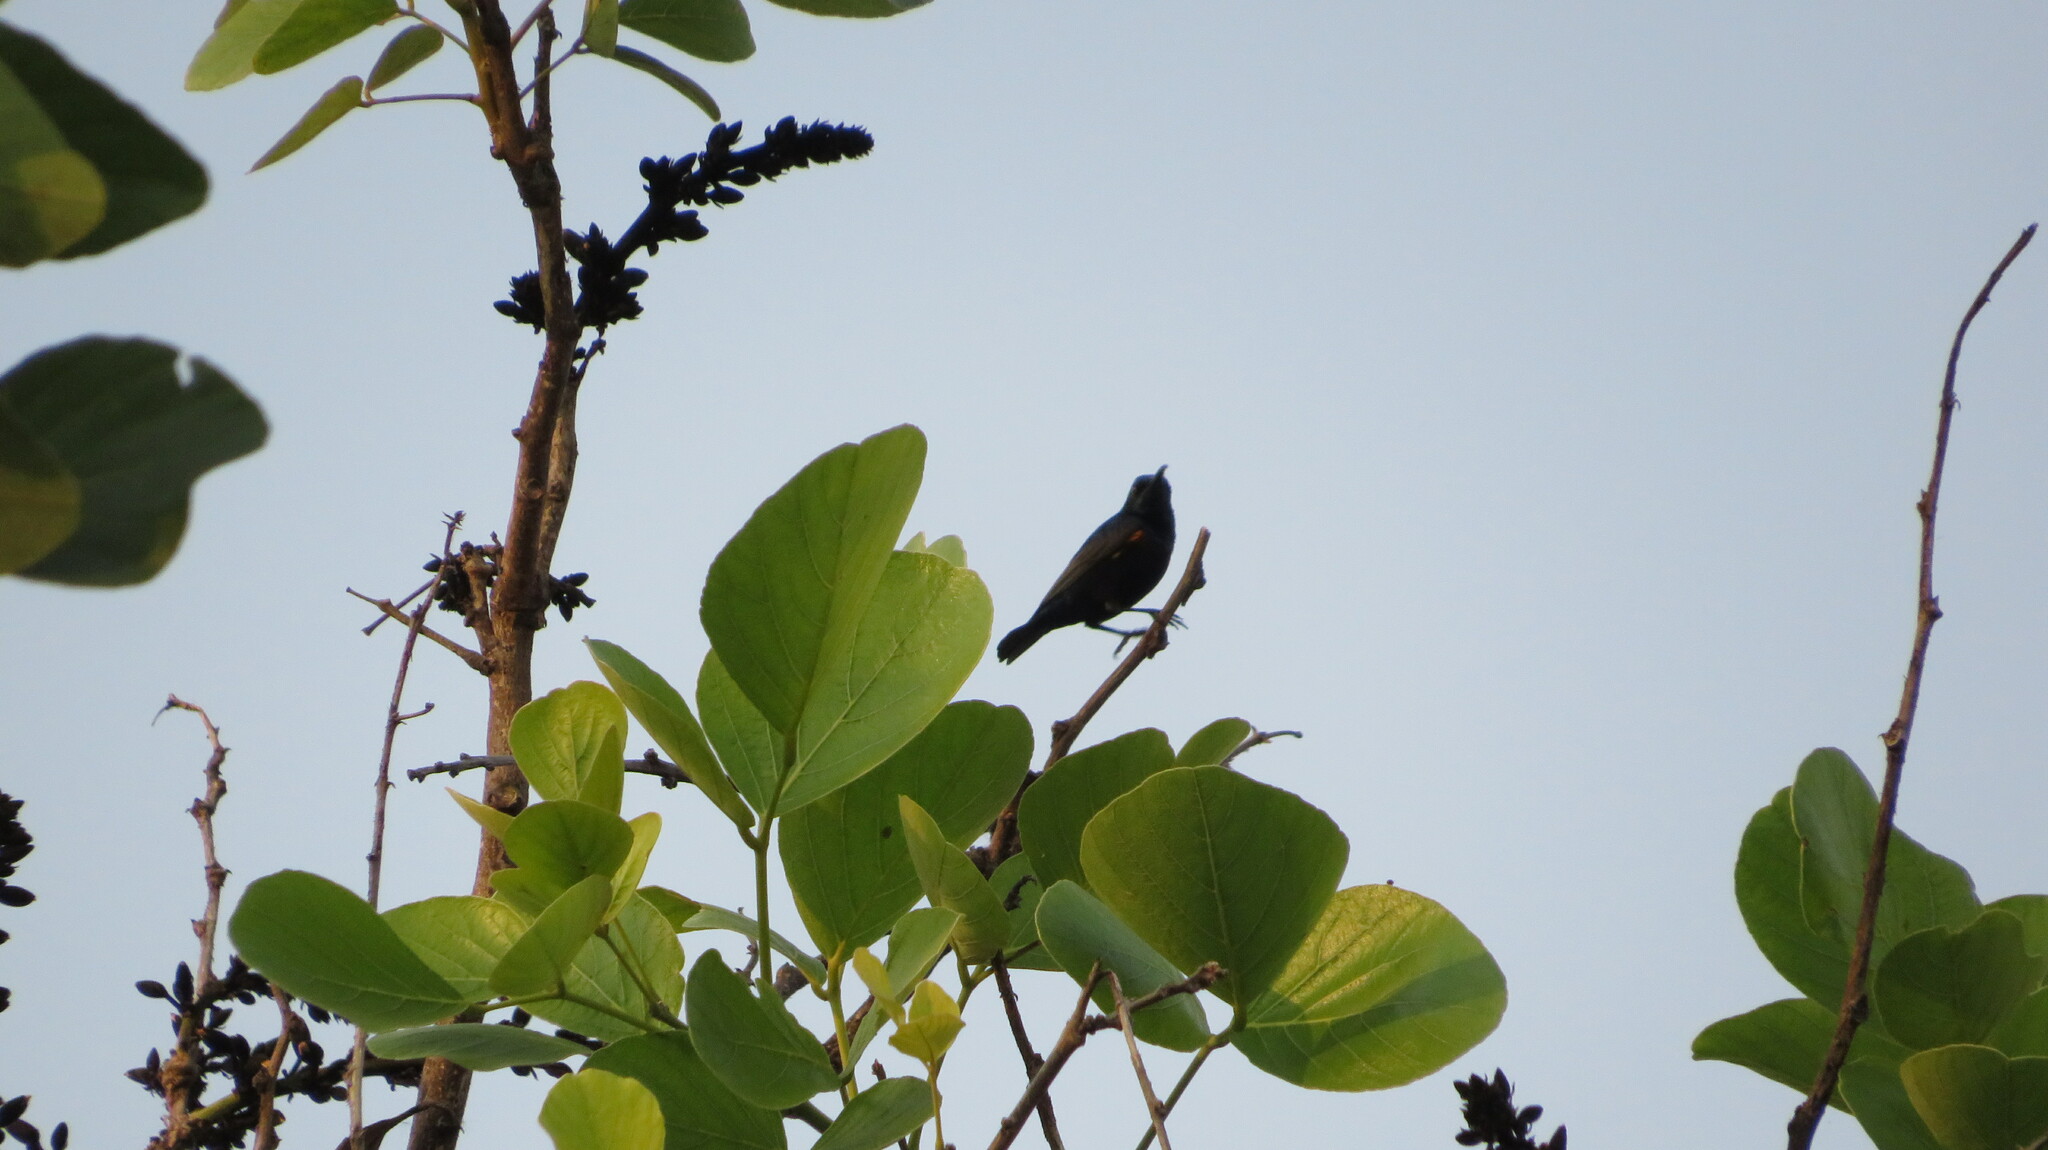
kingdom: Animalia
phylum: Chordata
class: Aves
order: Passeriformes
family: Nectariniidae
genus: Cinnyris
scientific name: Cinnyris asiaticus
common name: Purple sunbird
